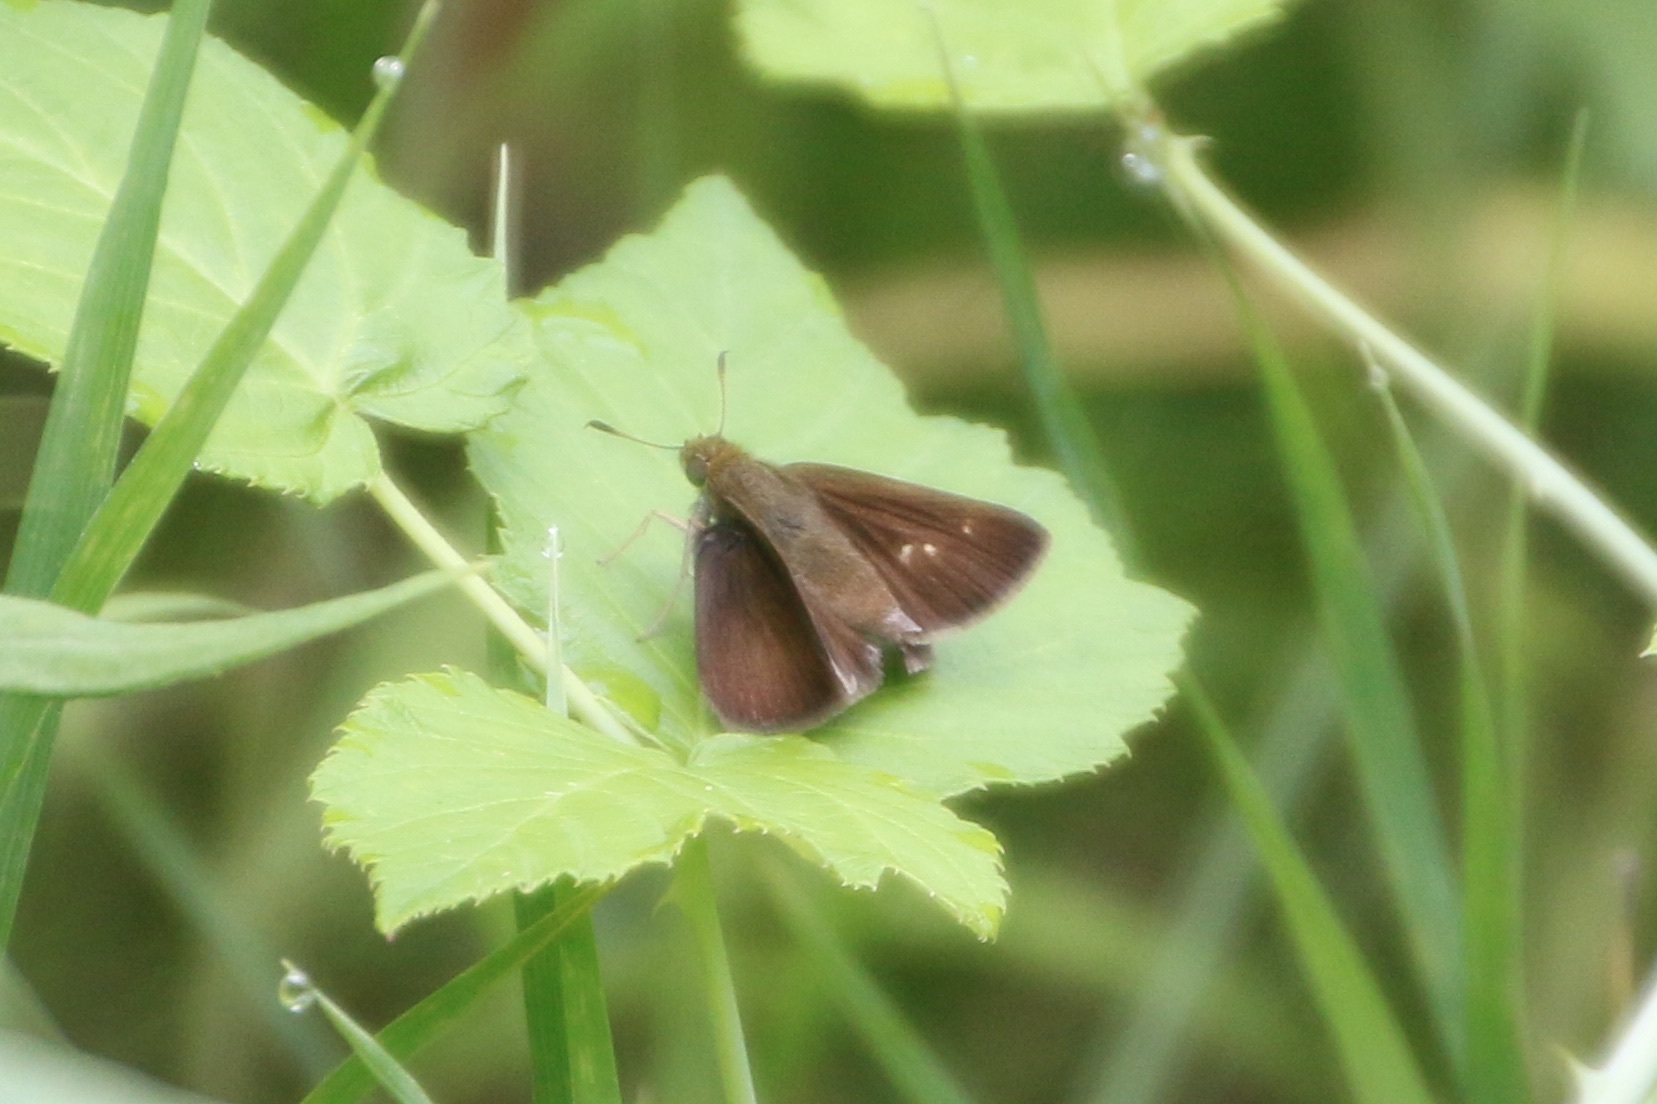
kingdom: Animalia
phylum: Arthropoda
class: Insecta
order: Lepidoptera
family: Hesperiidae
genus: Euphyes
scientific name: Euphyes vestris
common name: Dun skipper
